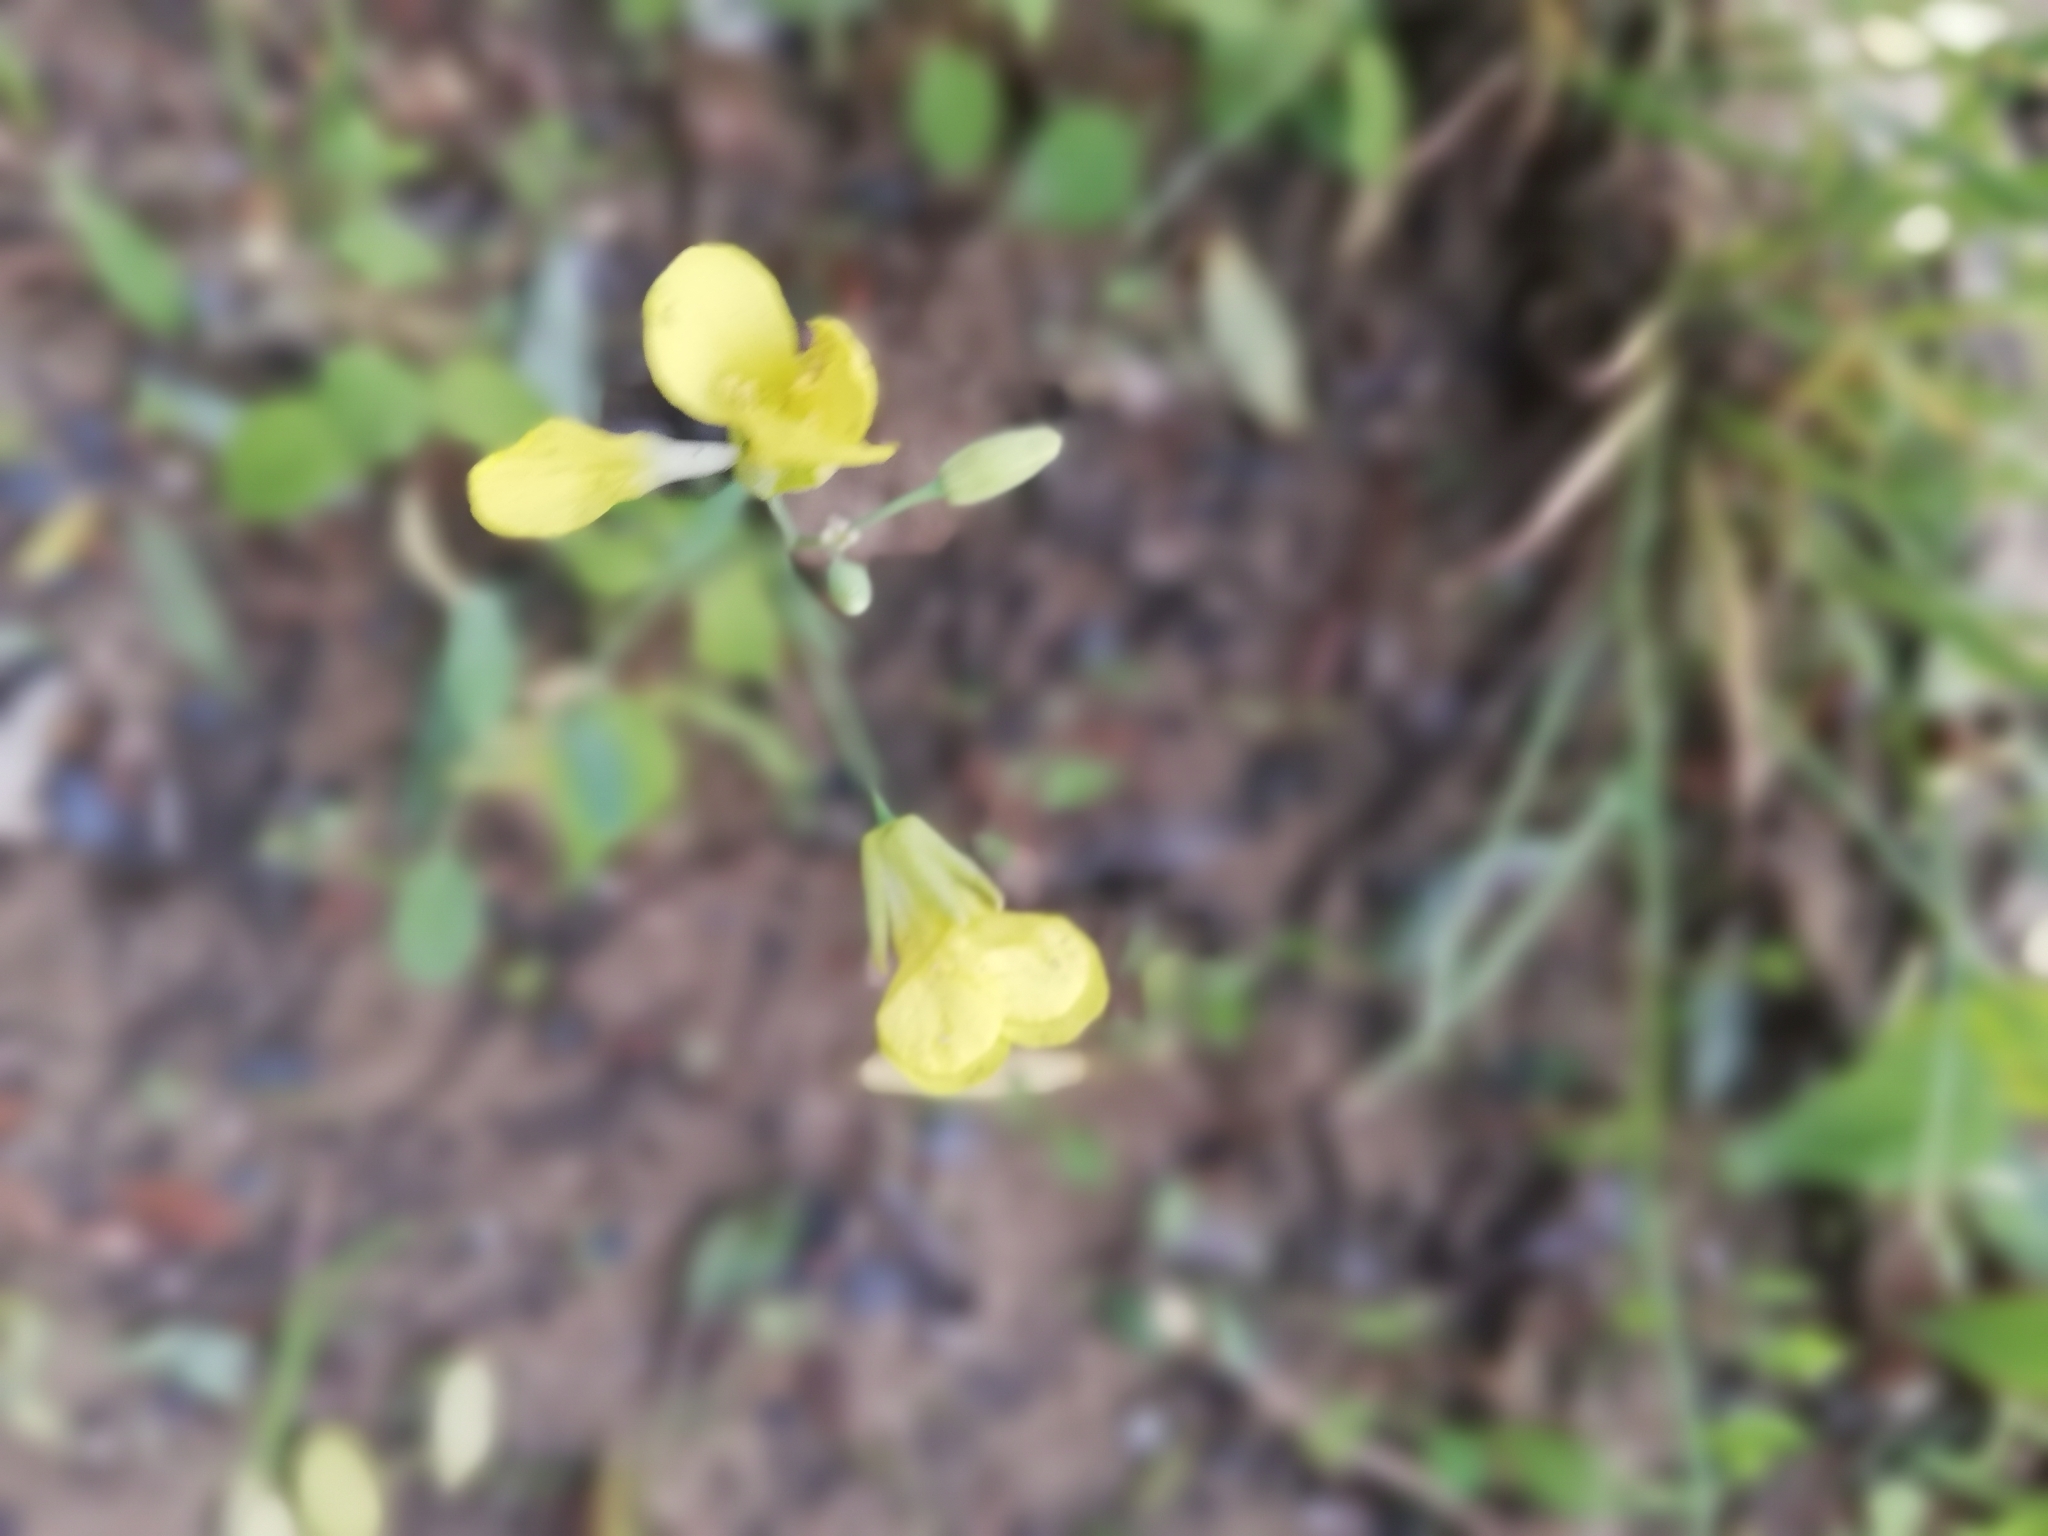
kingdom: Plantae
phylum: Tracheophyta
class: Magnoliopsida
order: Brassicales
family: Brassicaceae
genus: Raphanus
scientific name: Raphanus raphanistrum
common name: Wild radish
